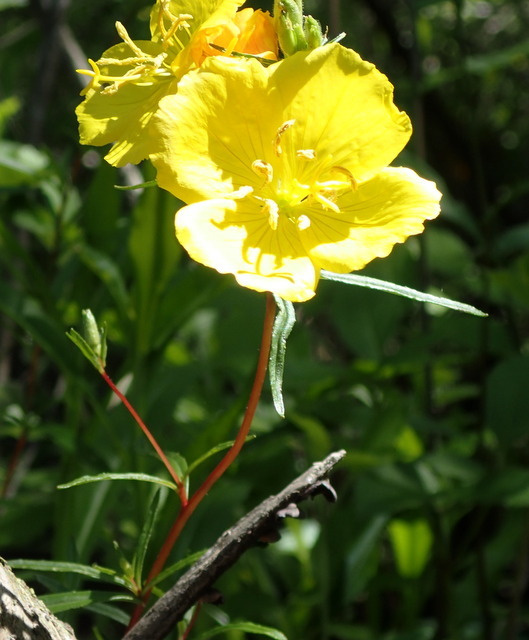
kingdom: Plantae
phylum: Tracheophyta
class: Magnoliopsida
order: Myrtales
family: Onagraceae
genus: Oenothera
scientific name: Oenothera fruticosa
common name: Southern sundrops
